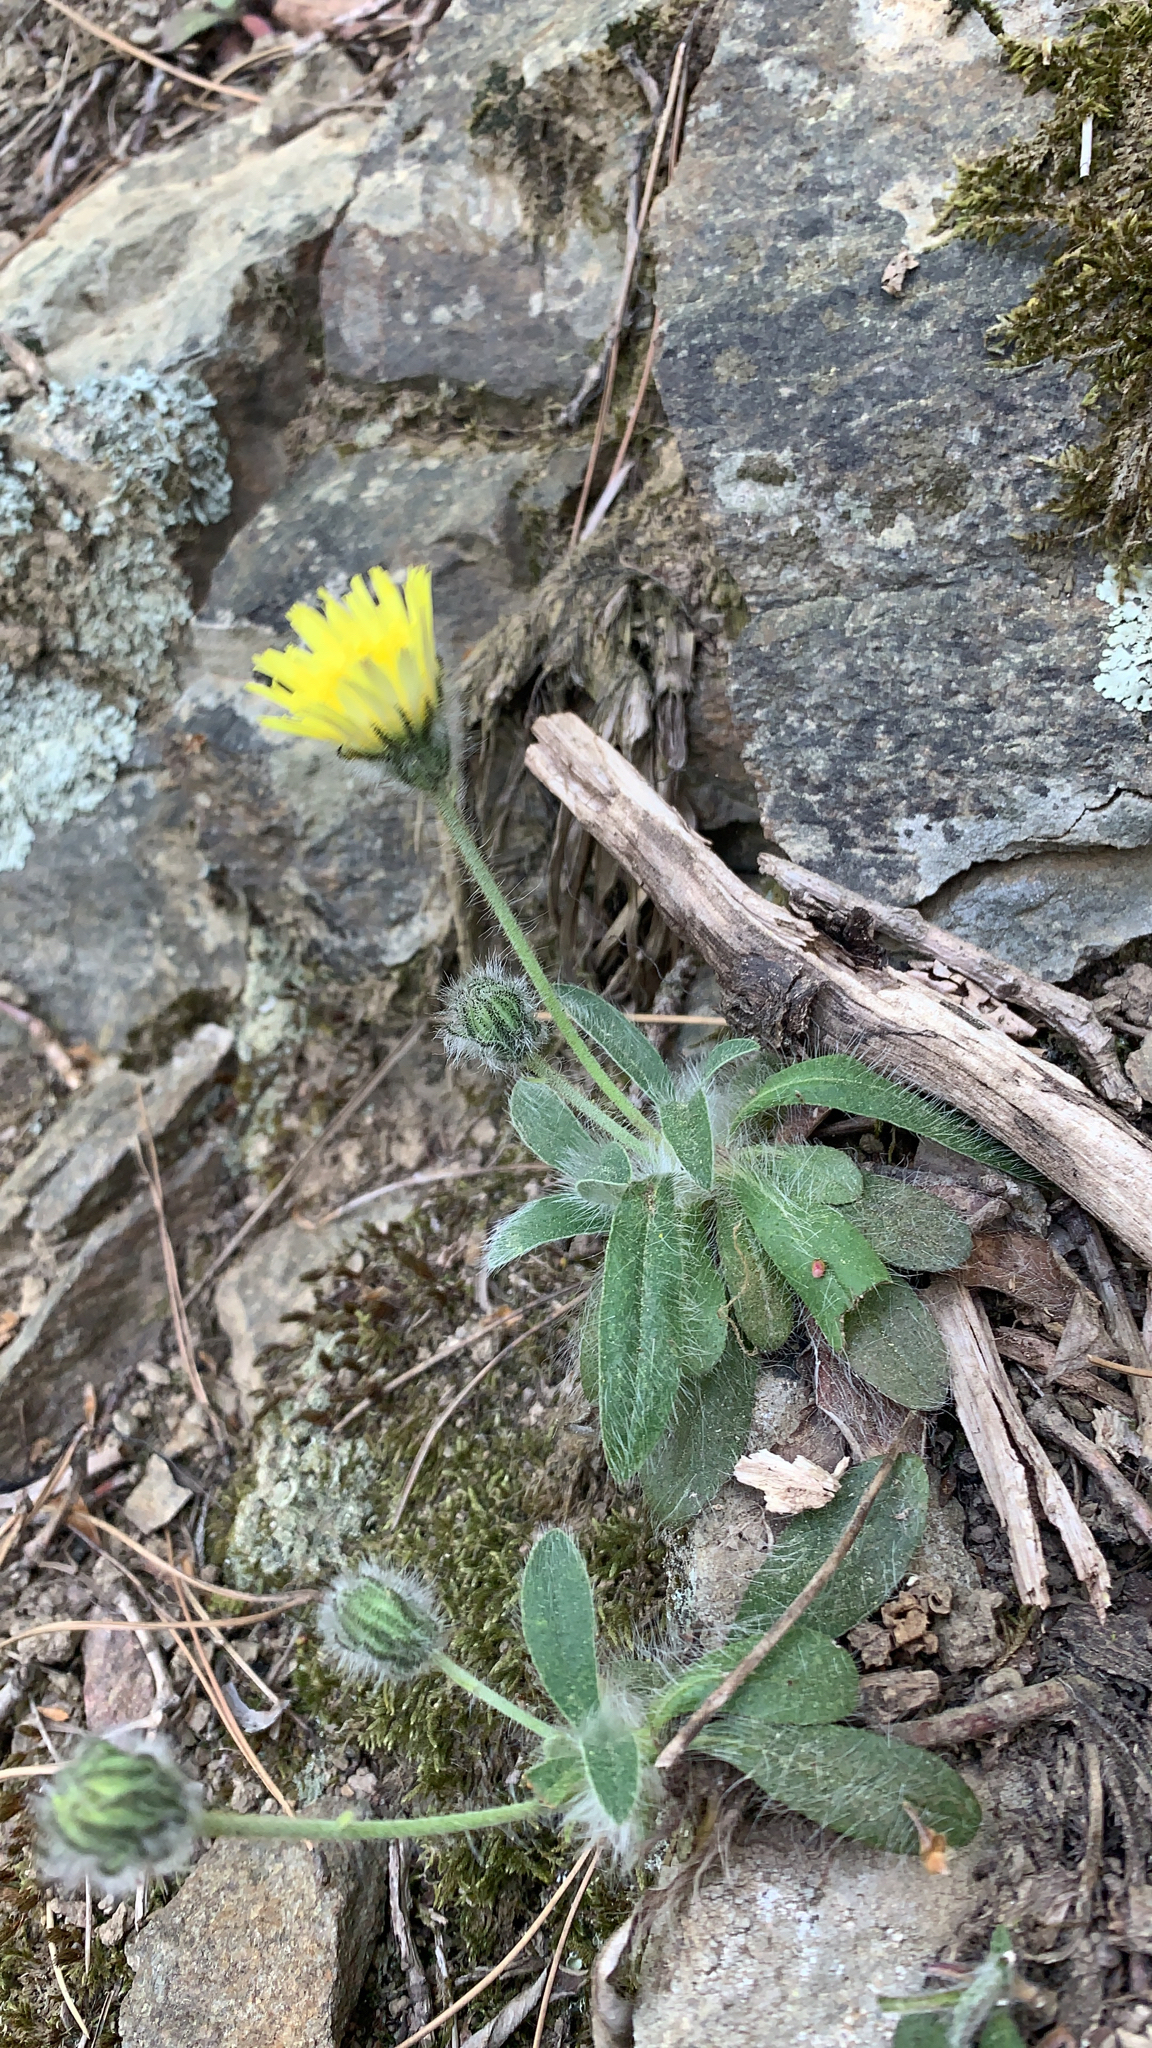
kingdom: Plantae
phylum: Tracheophyta
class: Magnoliopsida
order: Asterales
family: Asteraceae
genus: Pilosella
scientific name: Pilosella officinarum
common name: Mouse-ear hawkweed
